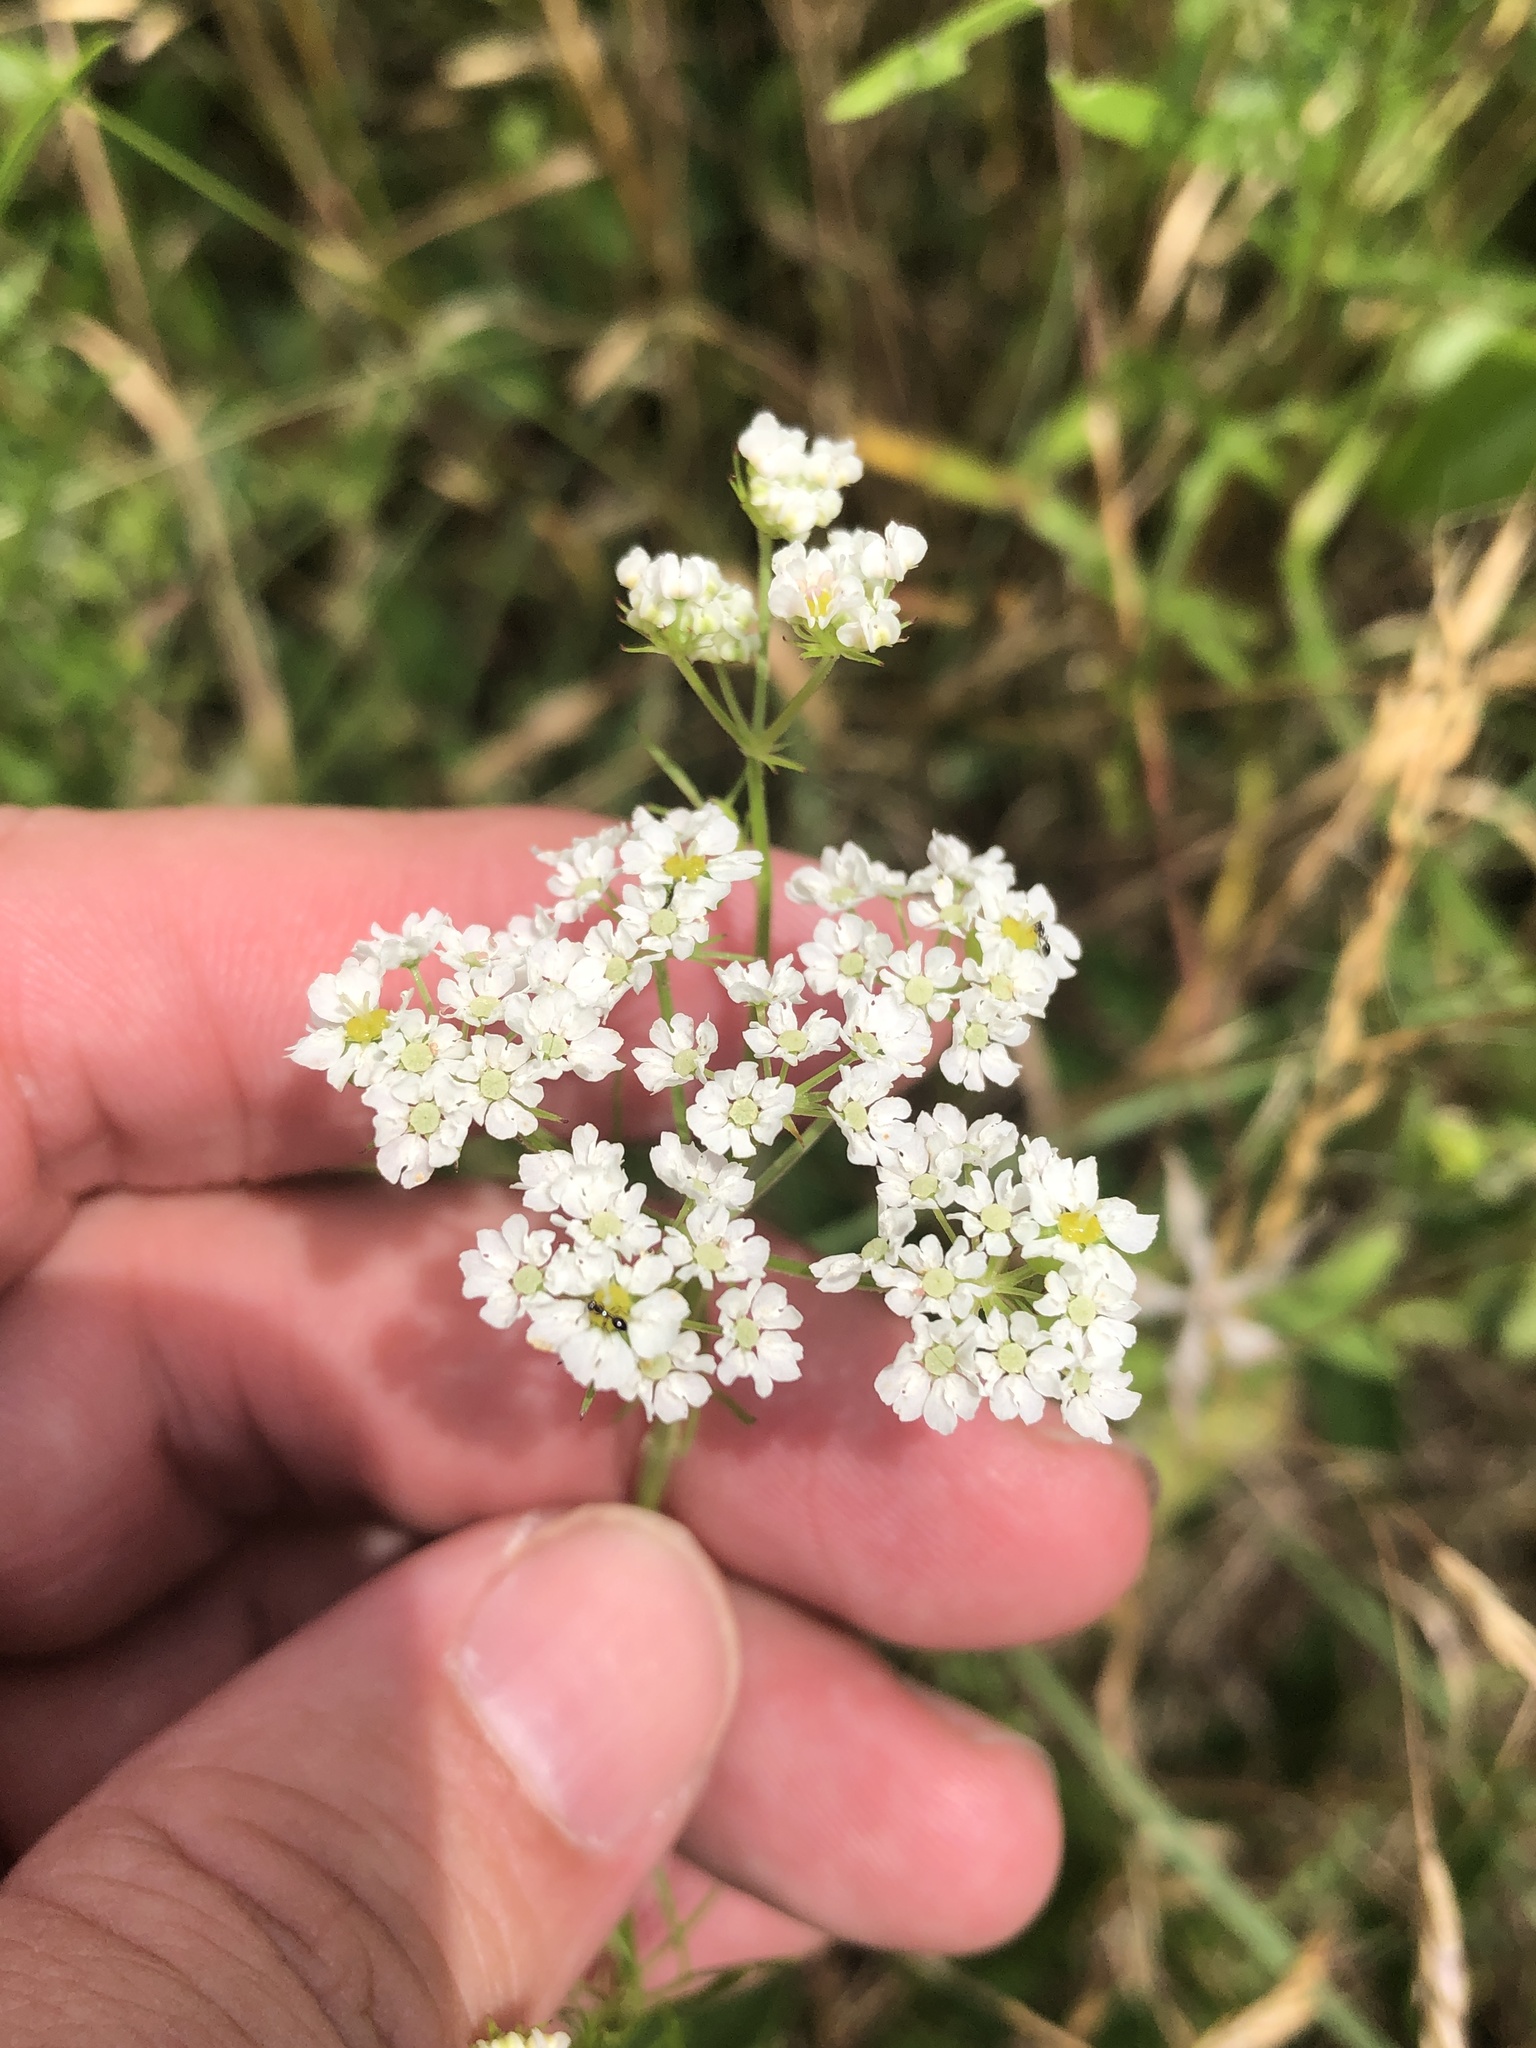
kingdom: Plantae
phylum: Tracheophyta
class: Magnoliopsida
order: Apiales
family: Apiaceae
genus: Atrema
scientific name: Atrema americanum
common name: Prairie-bishop
